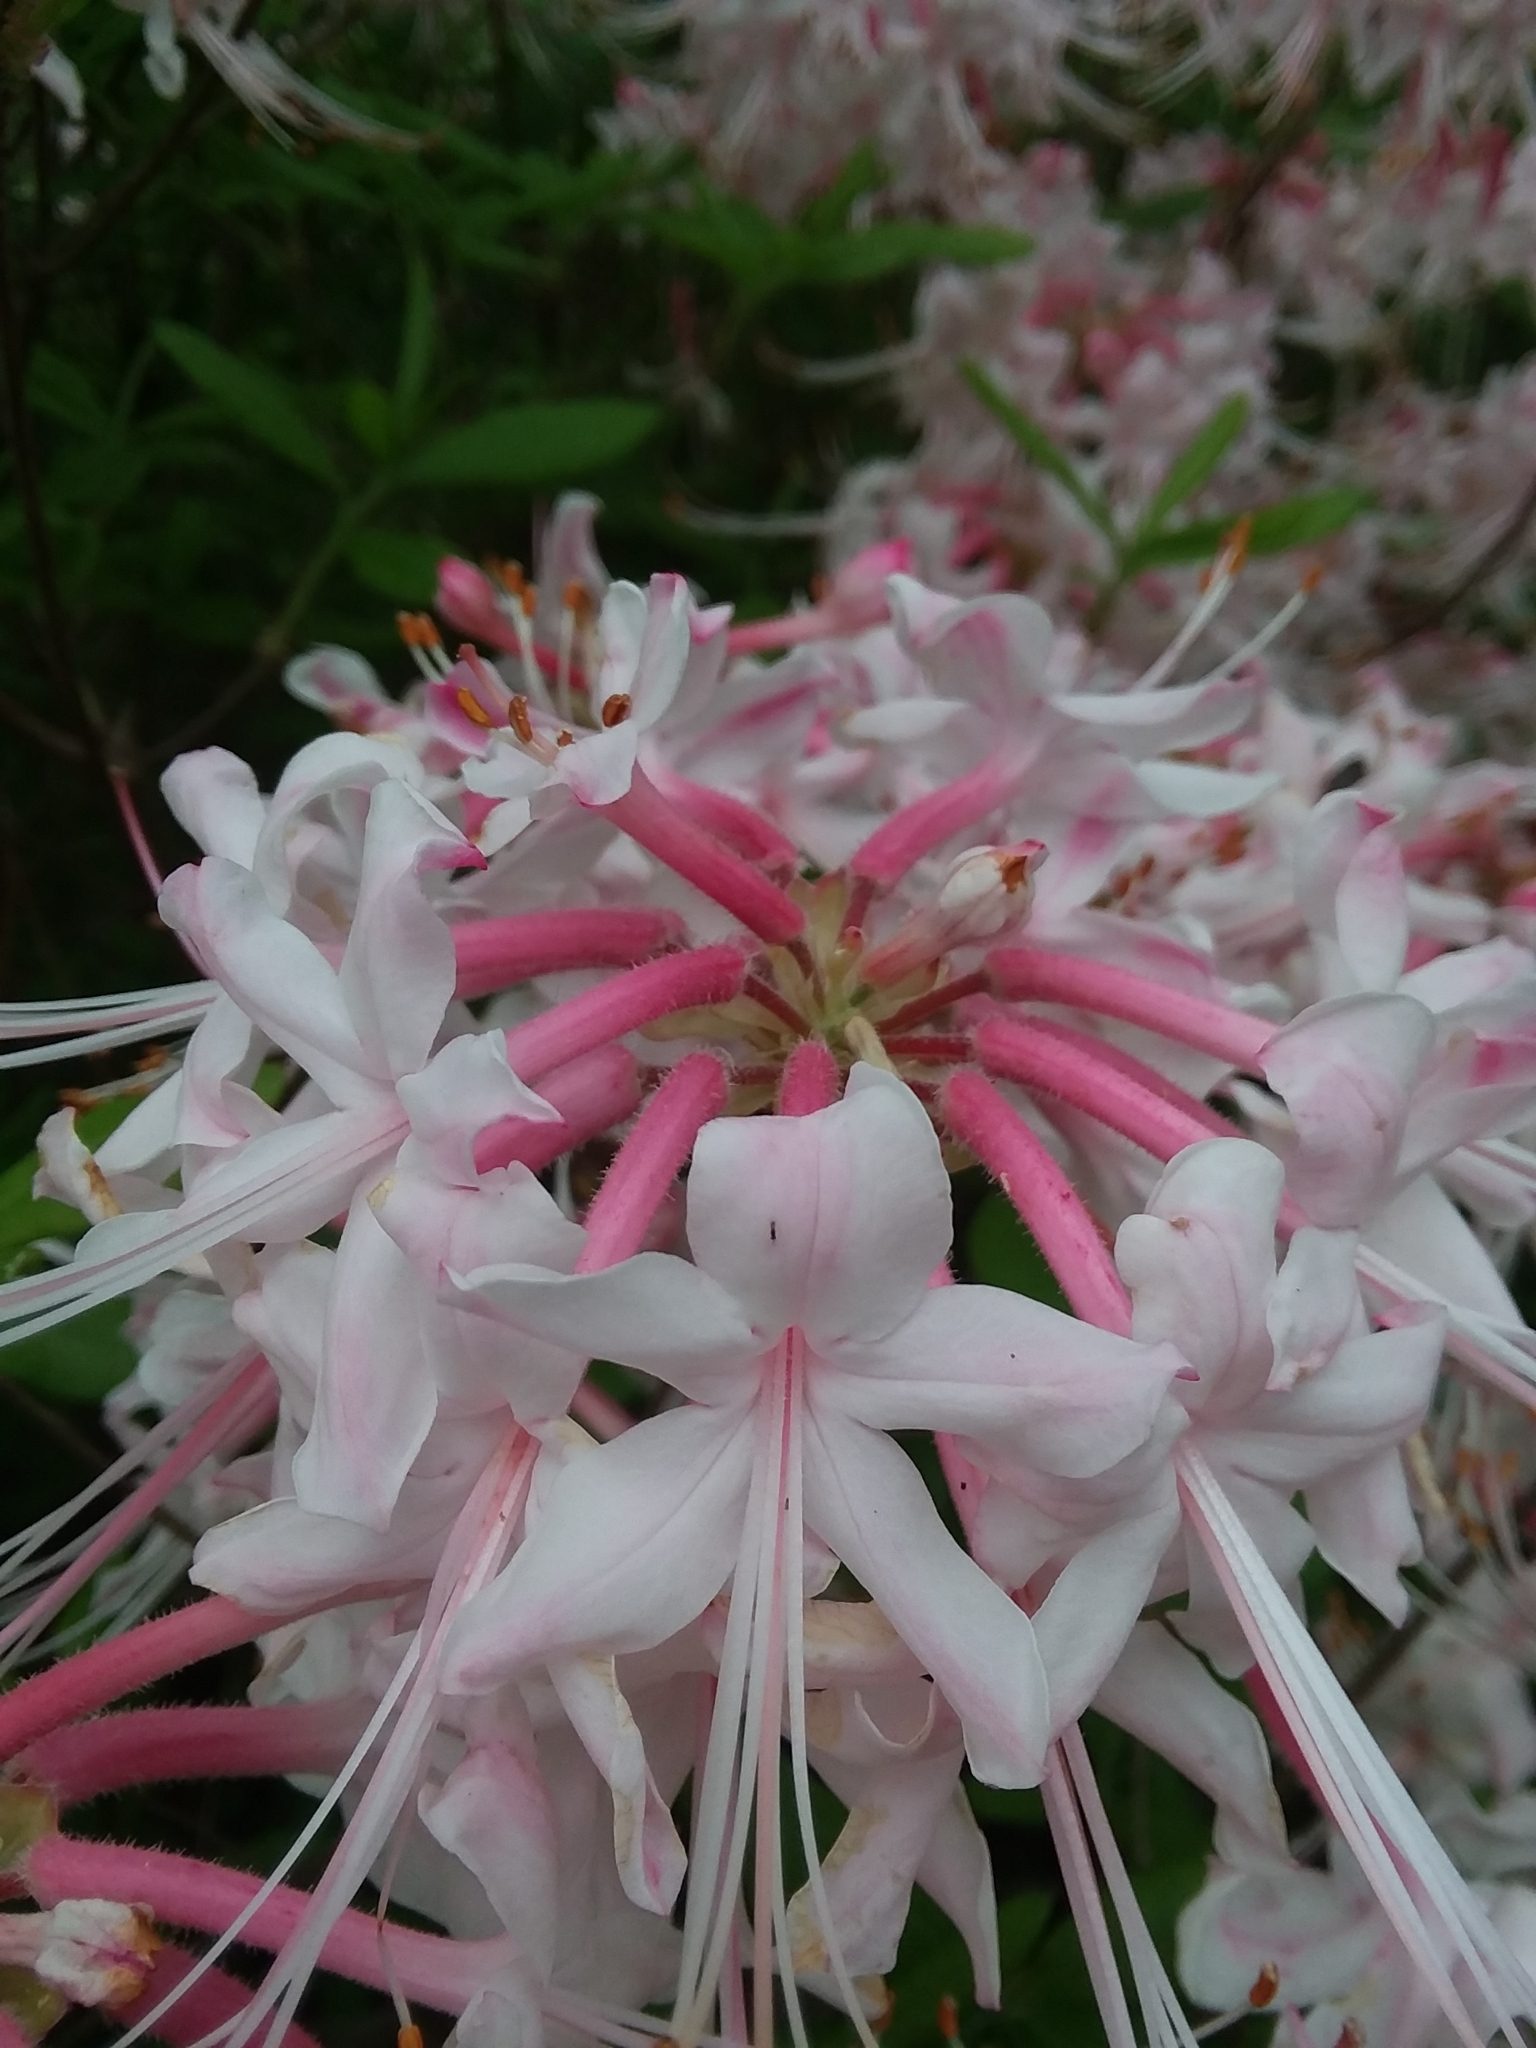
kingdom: Plantae
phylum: Tracheophyta
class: Magnoliopsida
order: Ericales
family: Ericaceae
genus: Rhododendron
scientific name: Rhododendron canescens
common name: Mountain azalea
